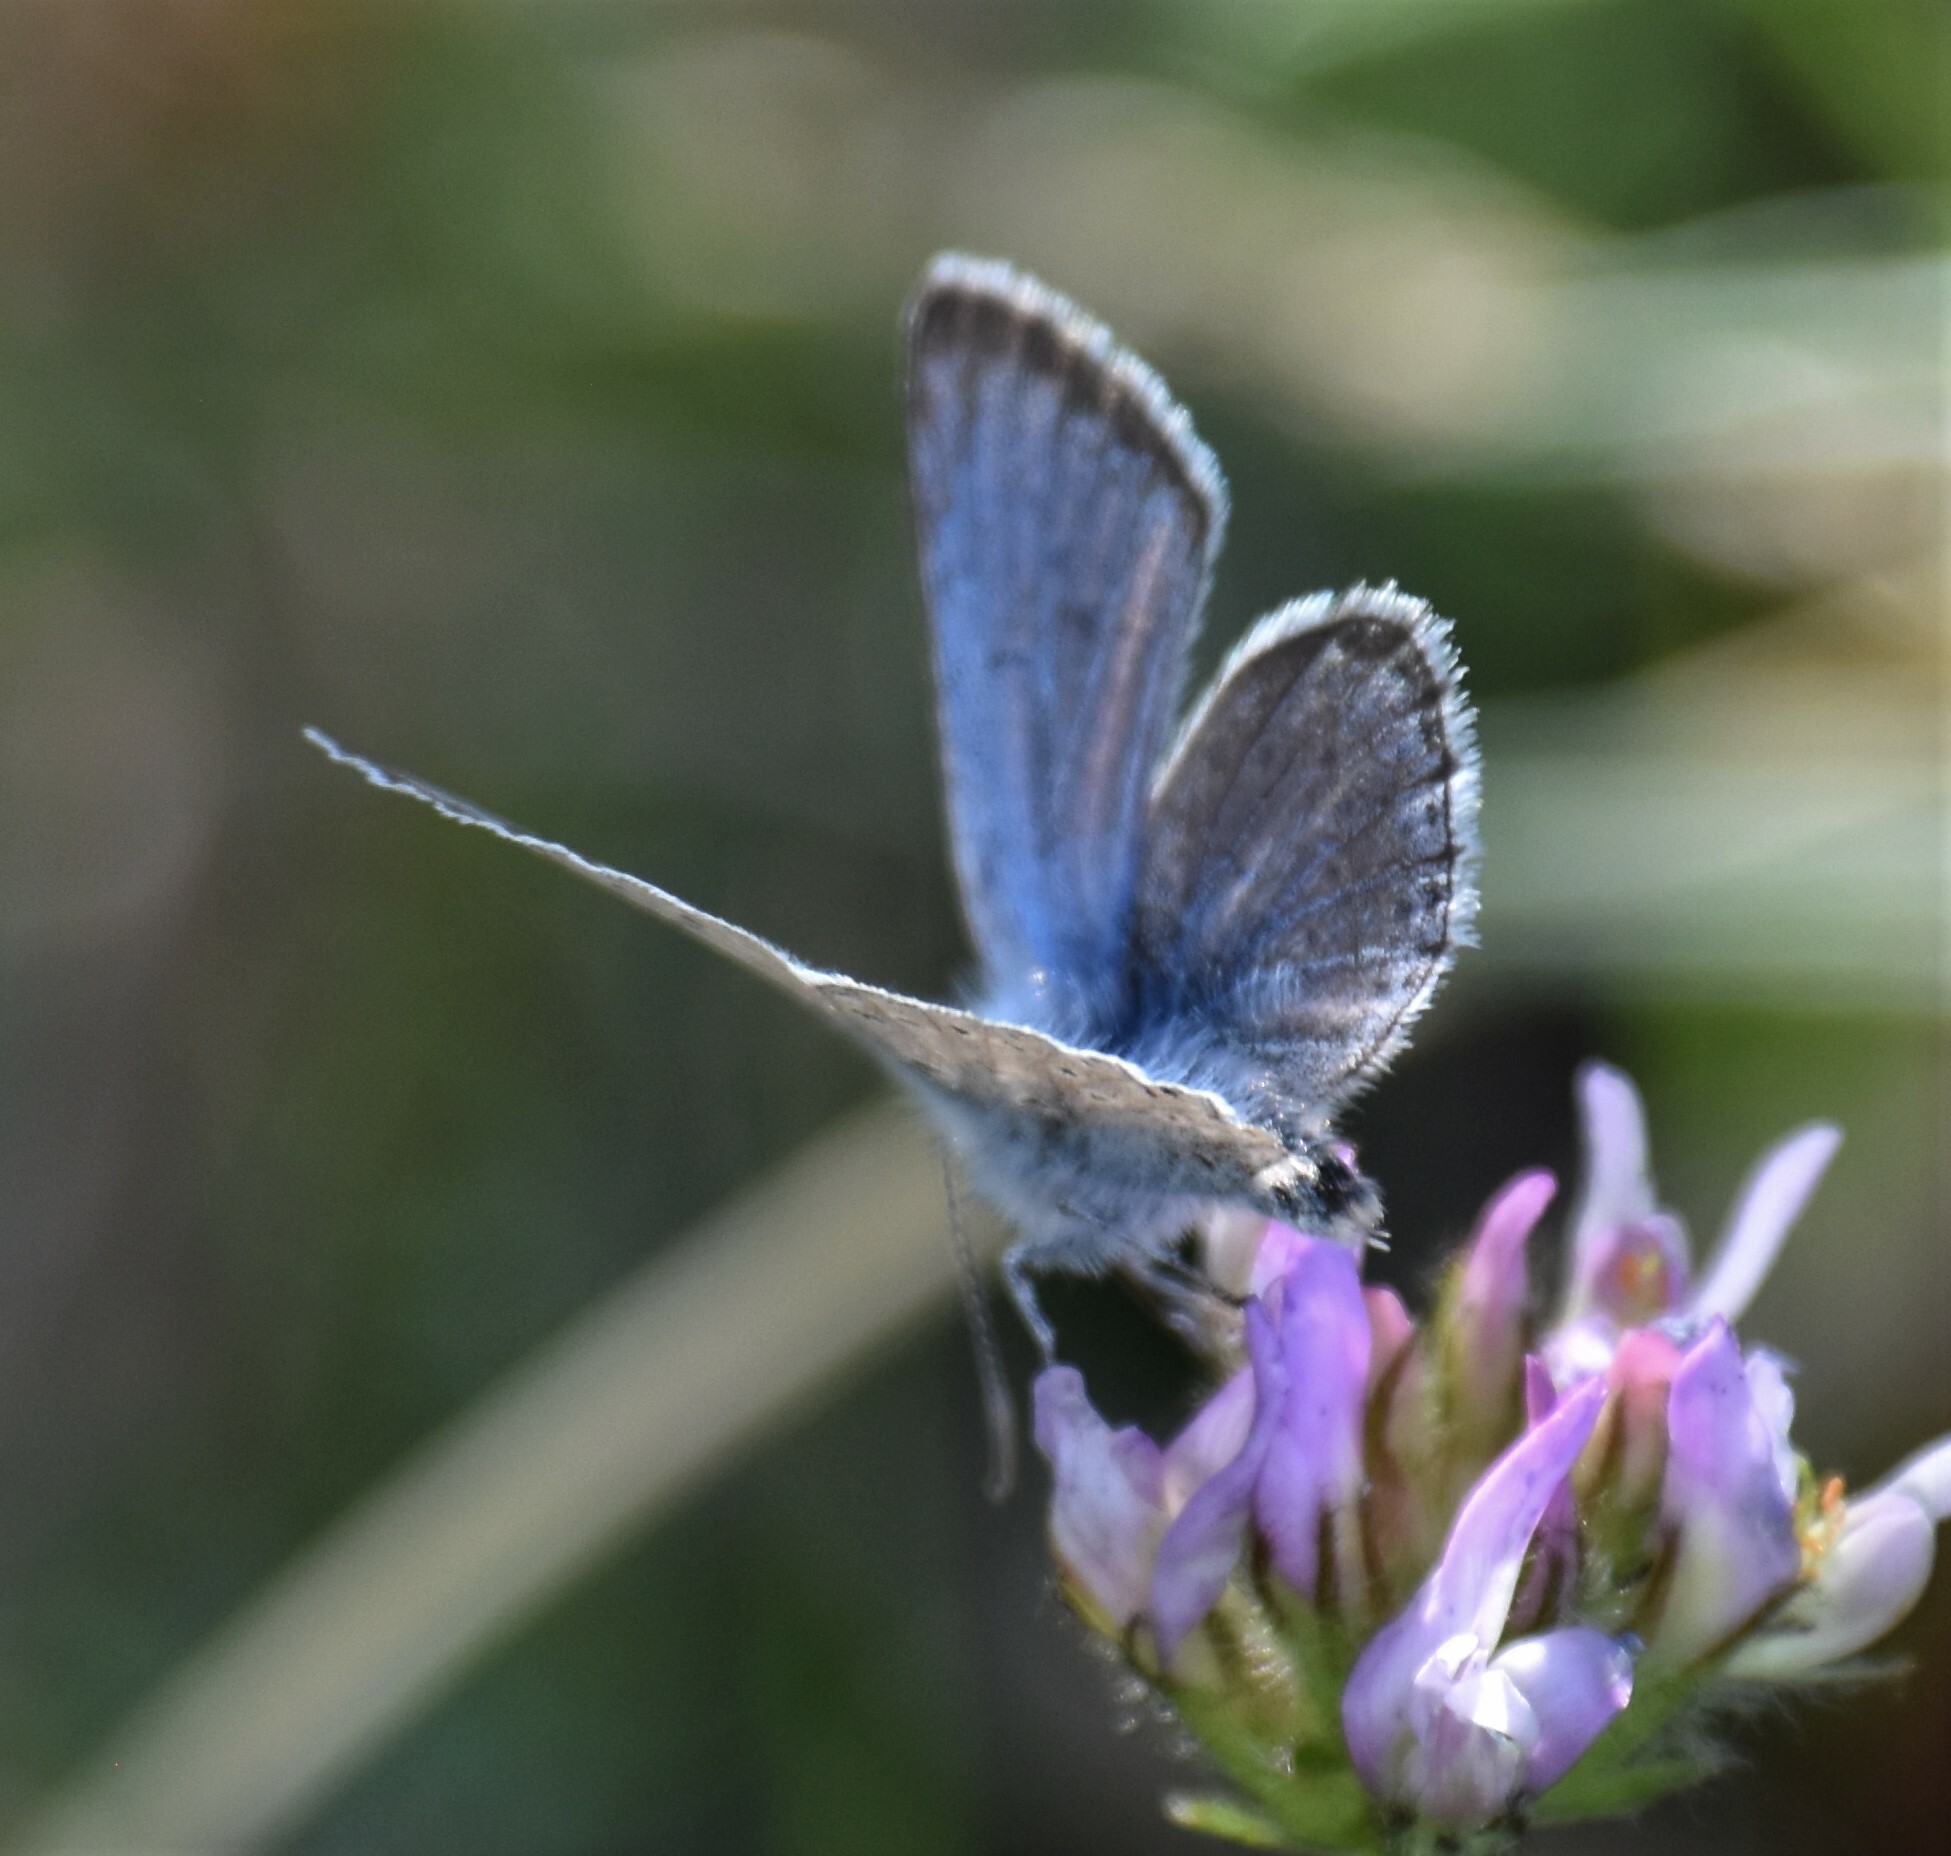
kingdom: Animalia
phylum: Arthropoda
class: Insecta
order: Lepidoptera
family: Lycaenidae
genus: Icaricia
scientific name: Icaricia saepiolus
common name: Greenish blue
